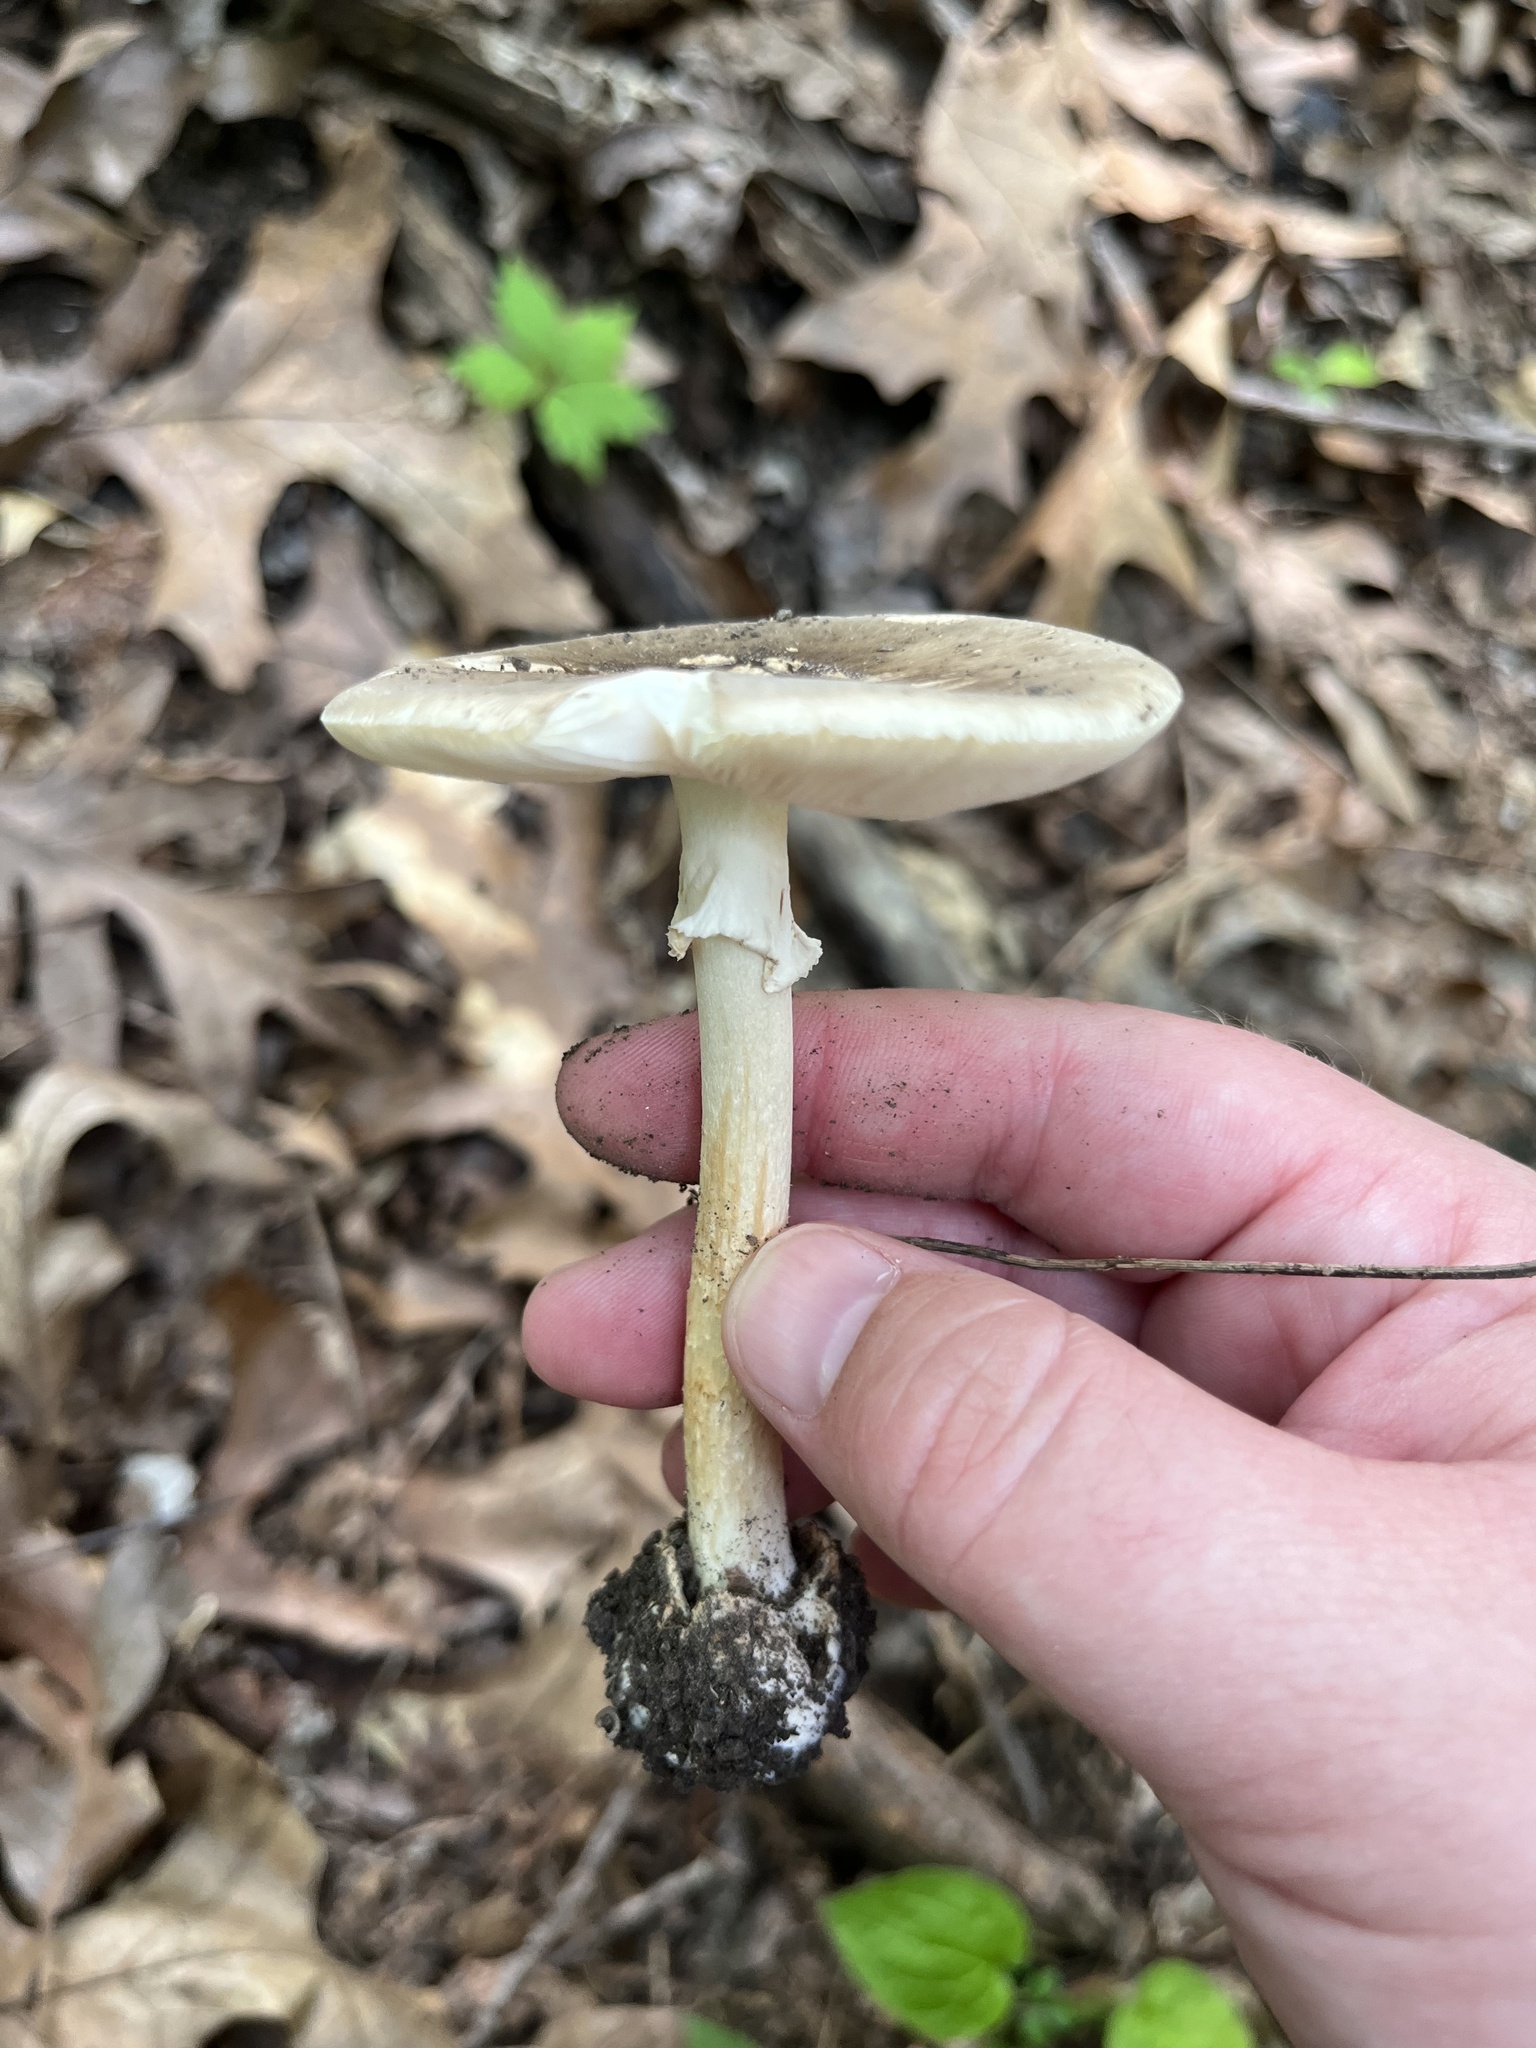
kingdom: Fungi
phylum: Basidiomycota
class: Agaricomycetes
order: Agaricales
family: Amanitaceae
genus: Amanita
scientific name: Amanita brunnescens
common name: Brown american star-footed amanita
